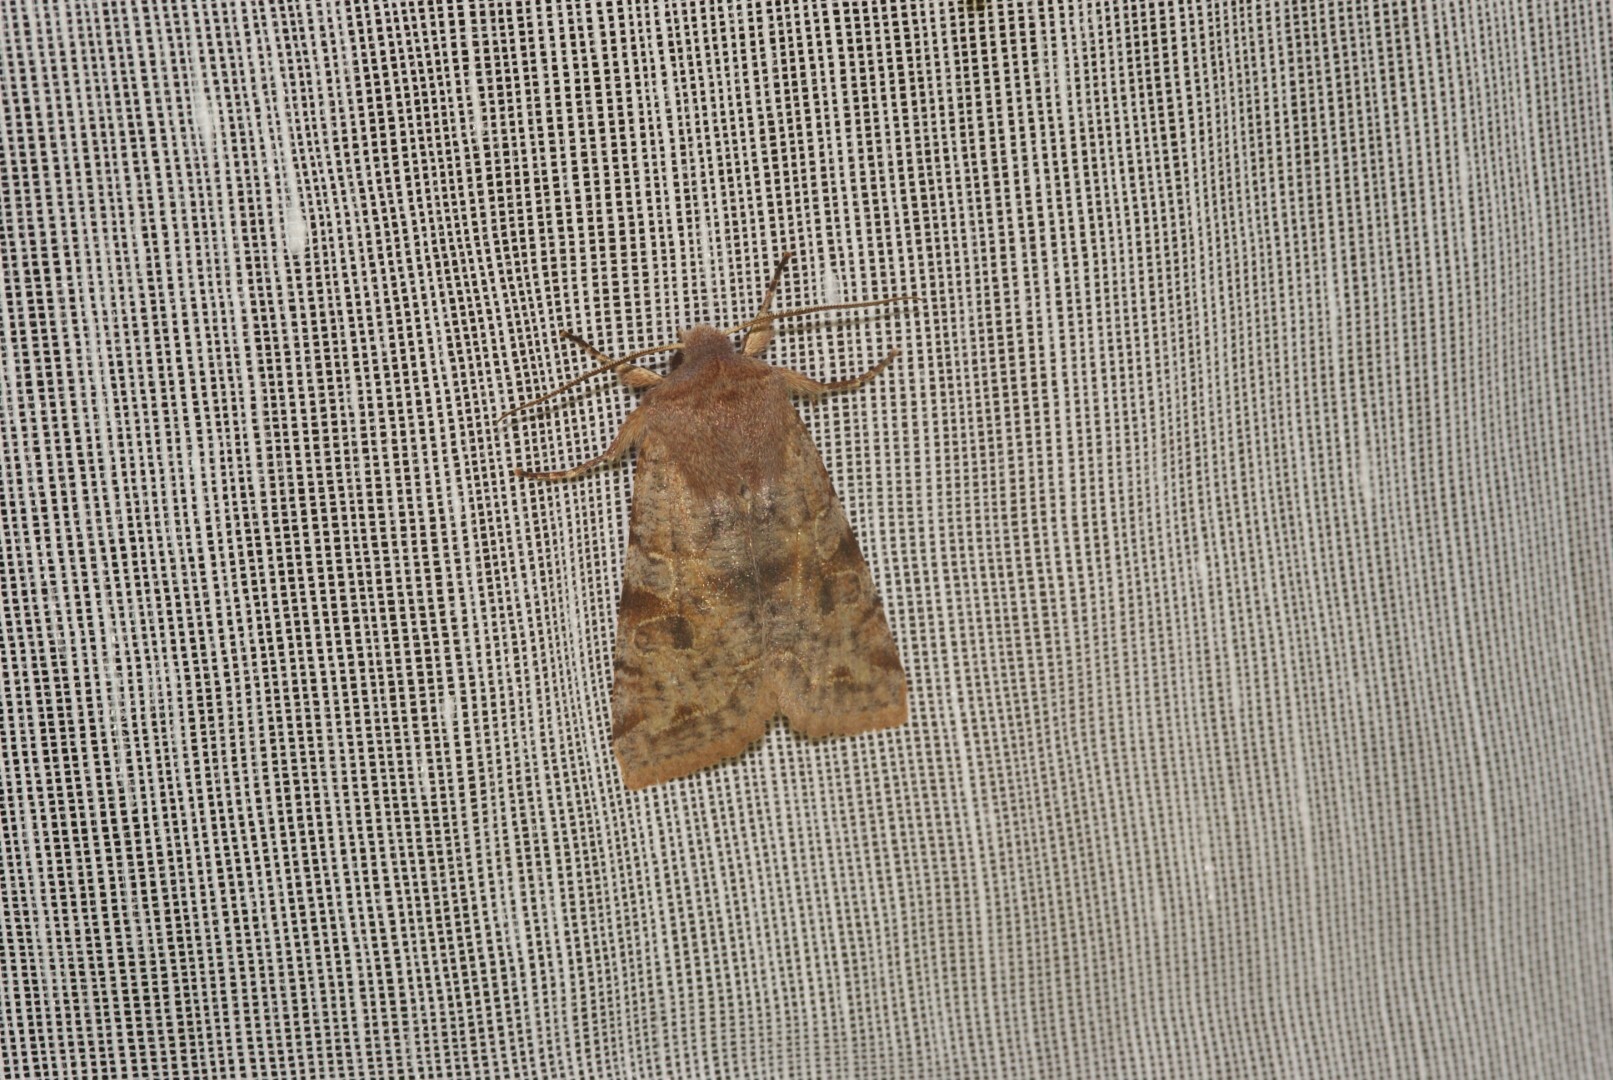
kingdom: Animalia
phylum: Arthropoda
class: Insecta
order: Lepidoptera
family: Noctuidae
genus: Orthosia
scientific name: Orthosia incerta
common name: Clouded drab
